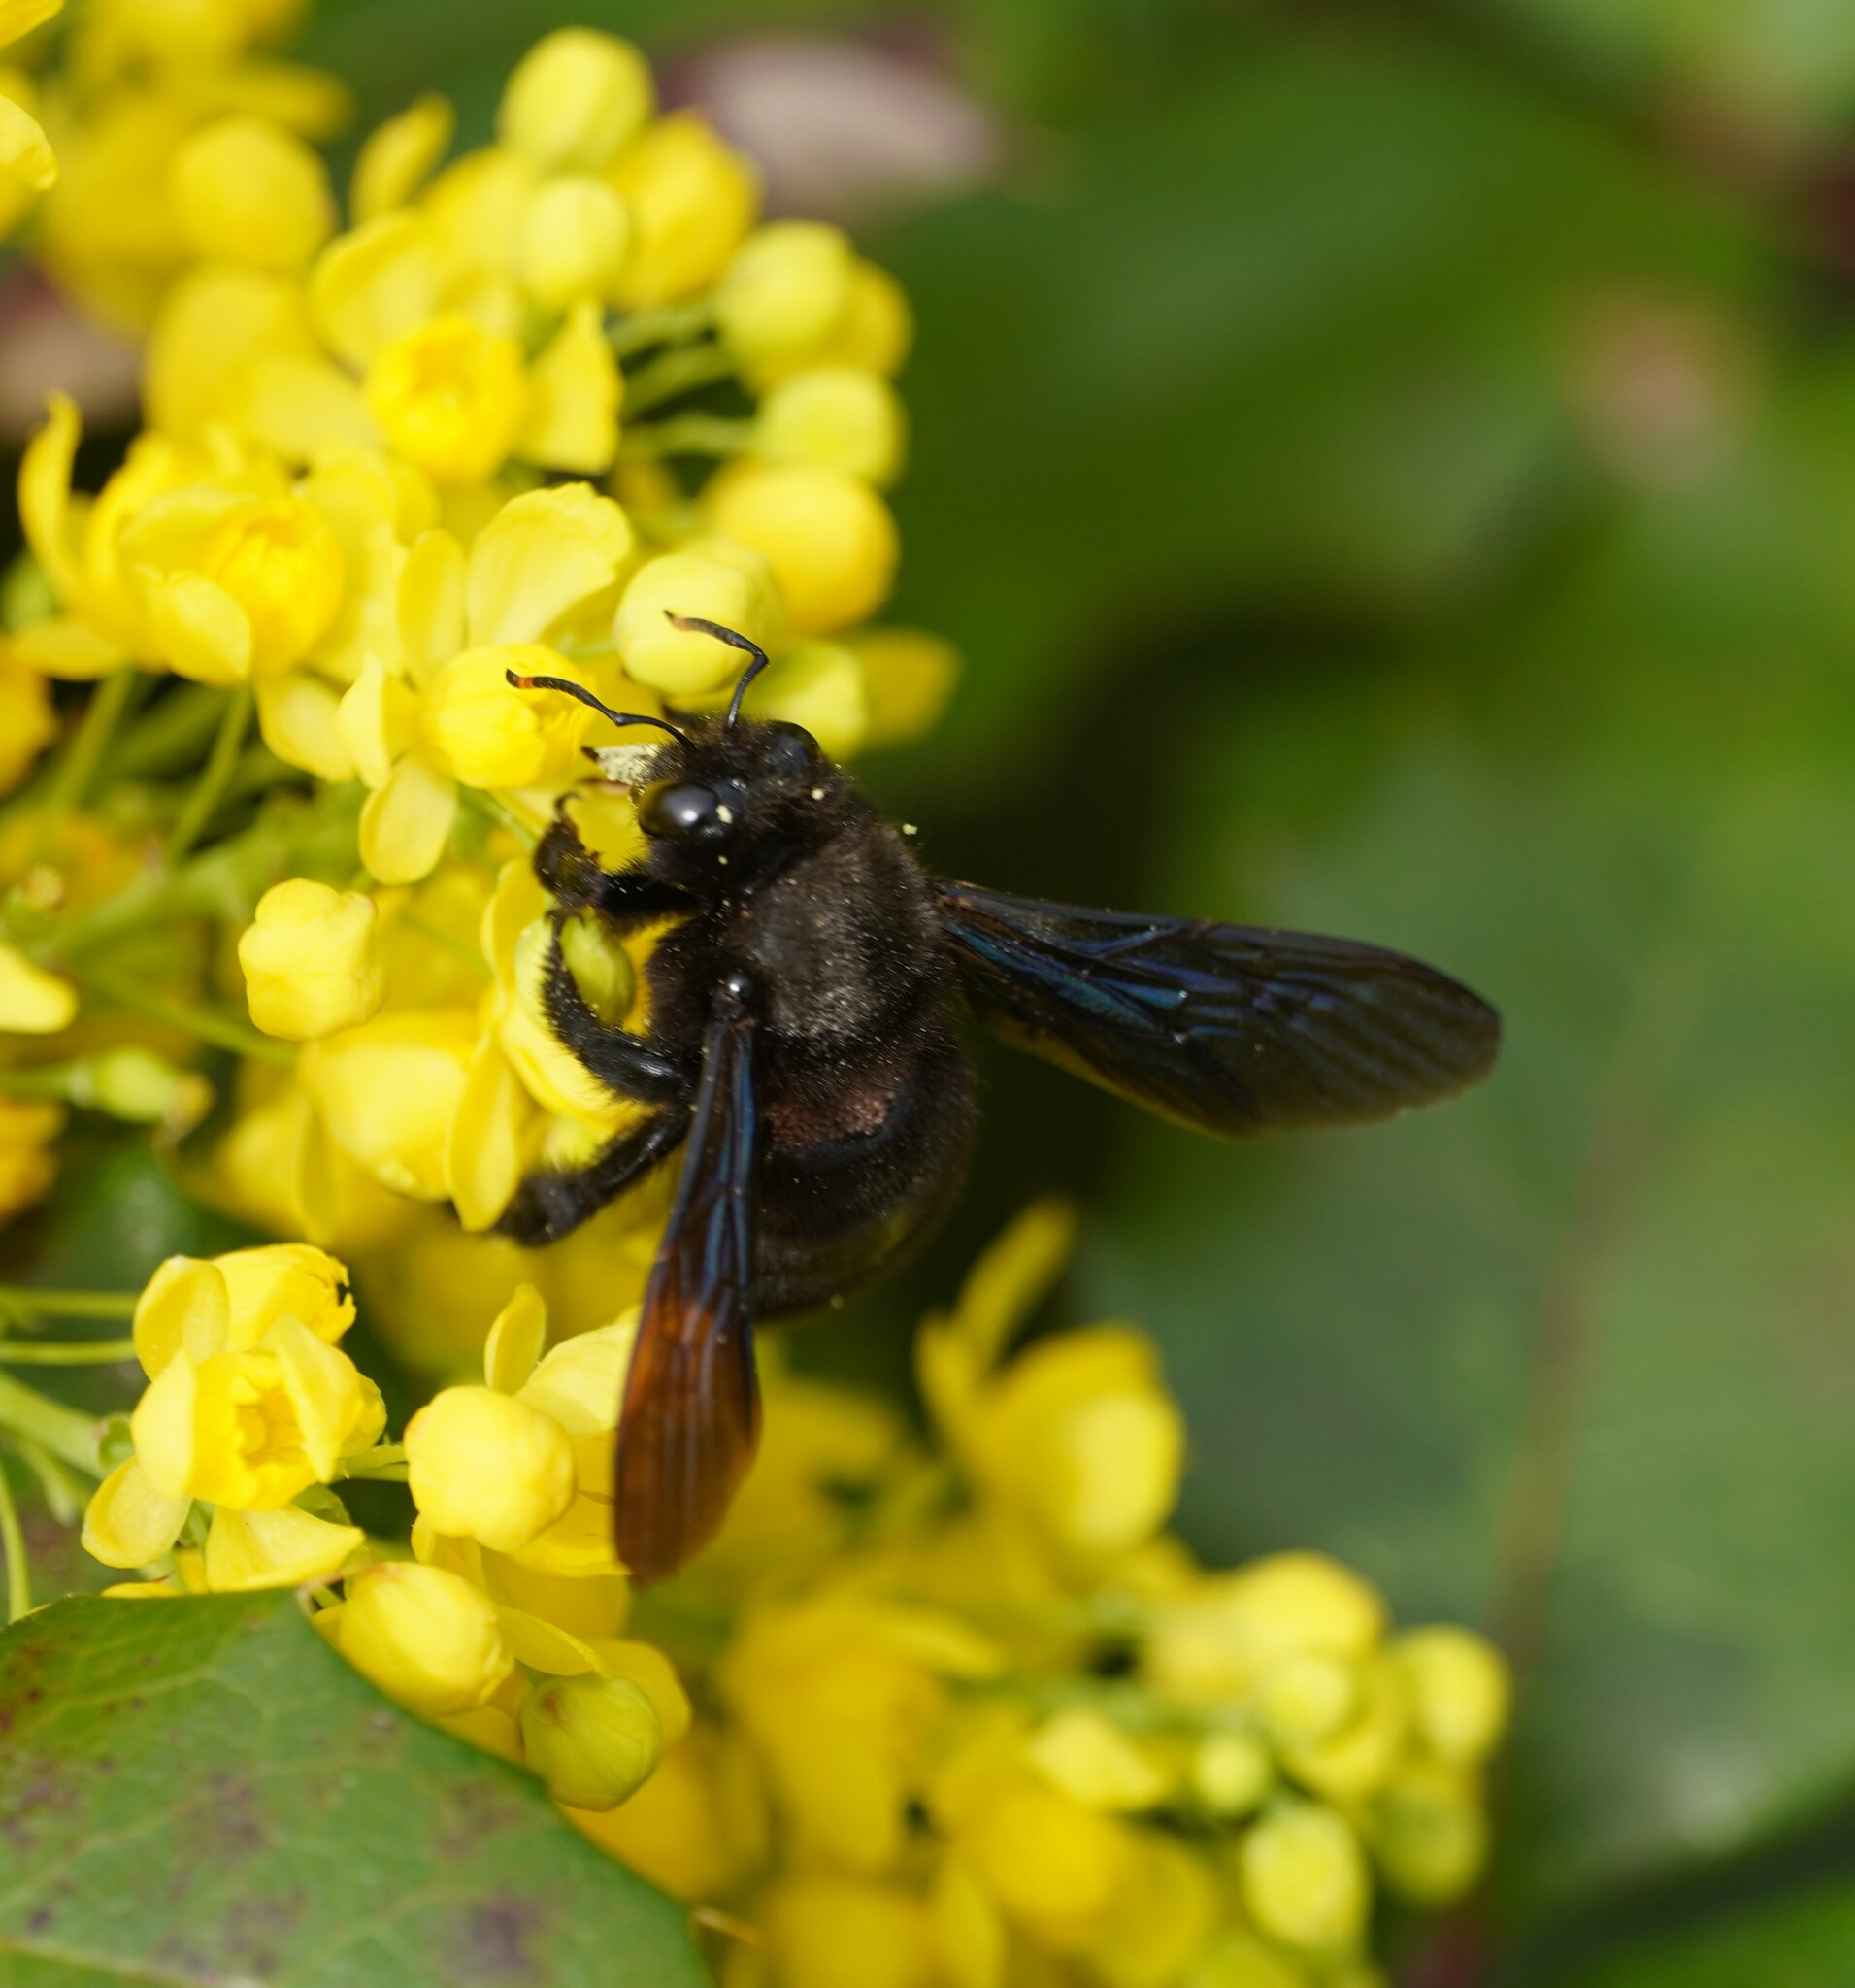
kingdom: Animalia
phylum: Arthropoda
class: Insecta
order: Hymenoptera
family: Apidae
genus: Xylocopa
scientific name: Xylocopa violacea
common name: Violet carpenter bee
